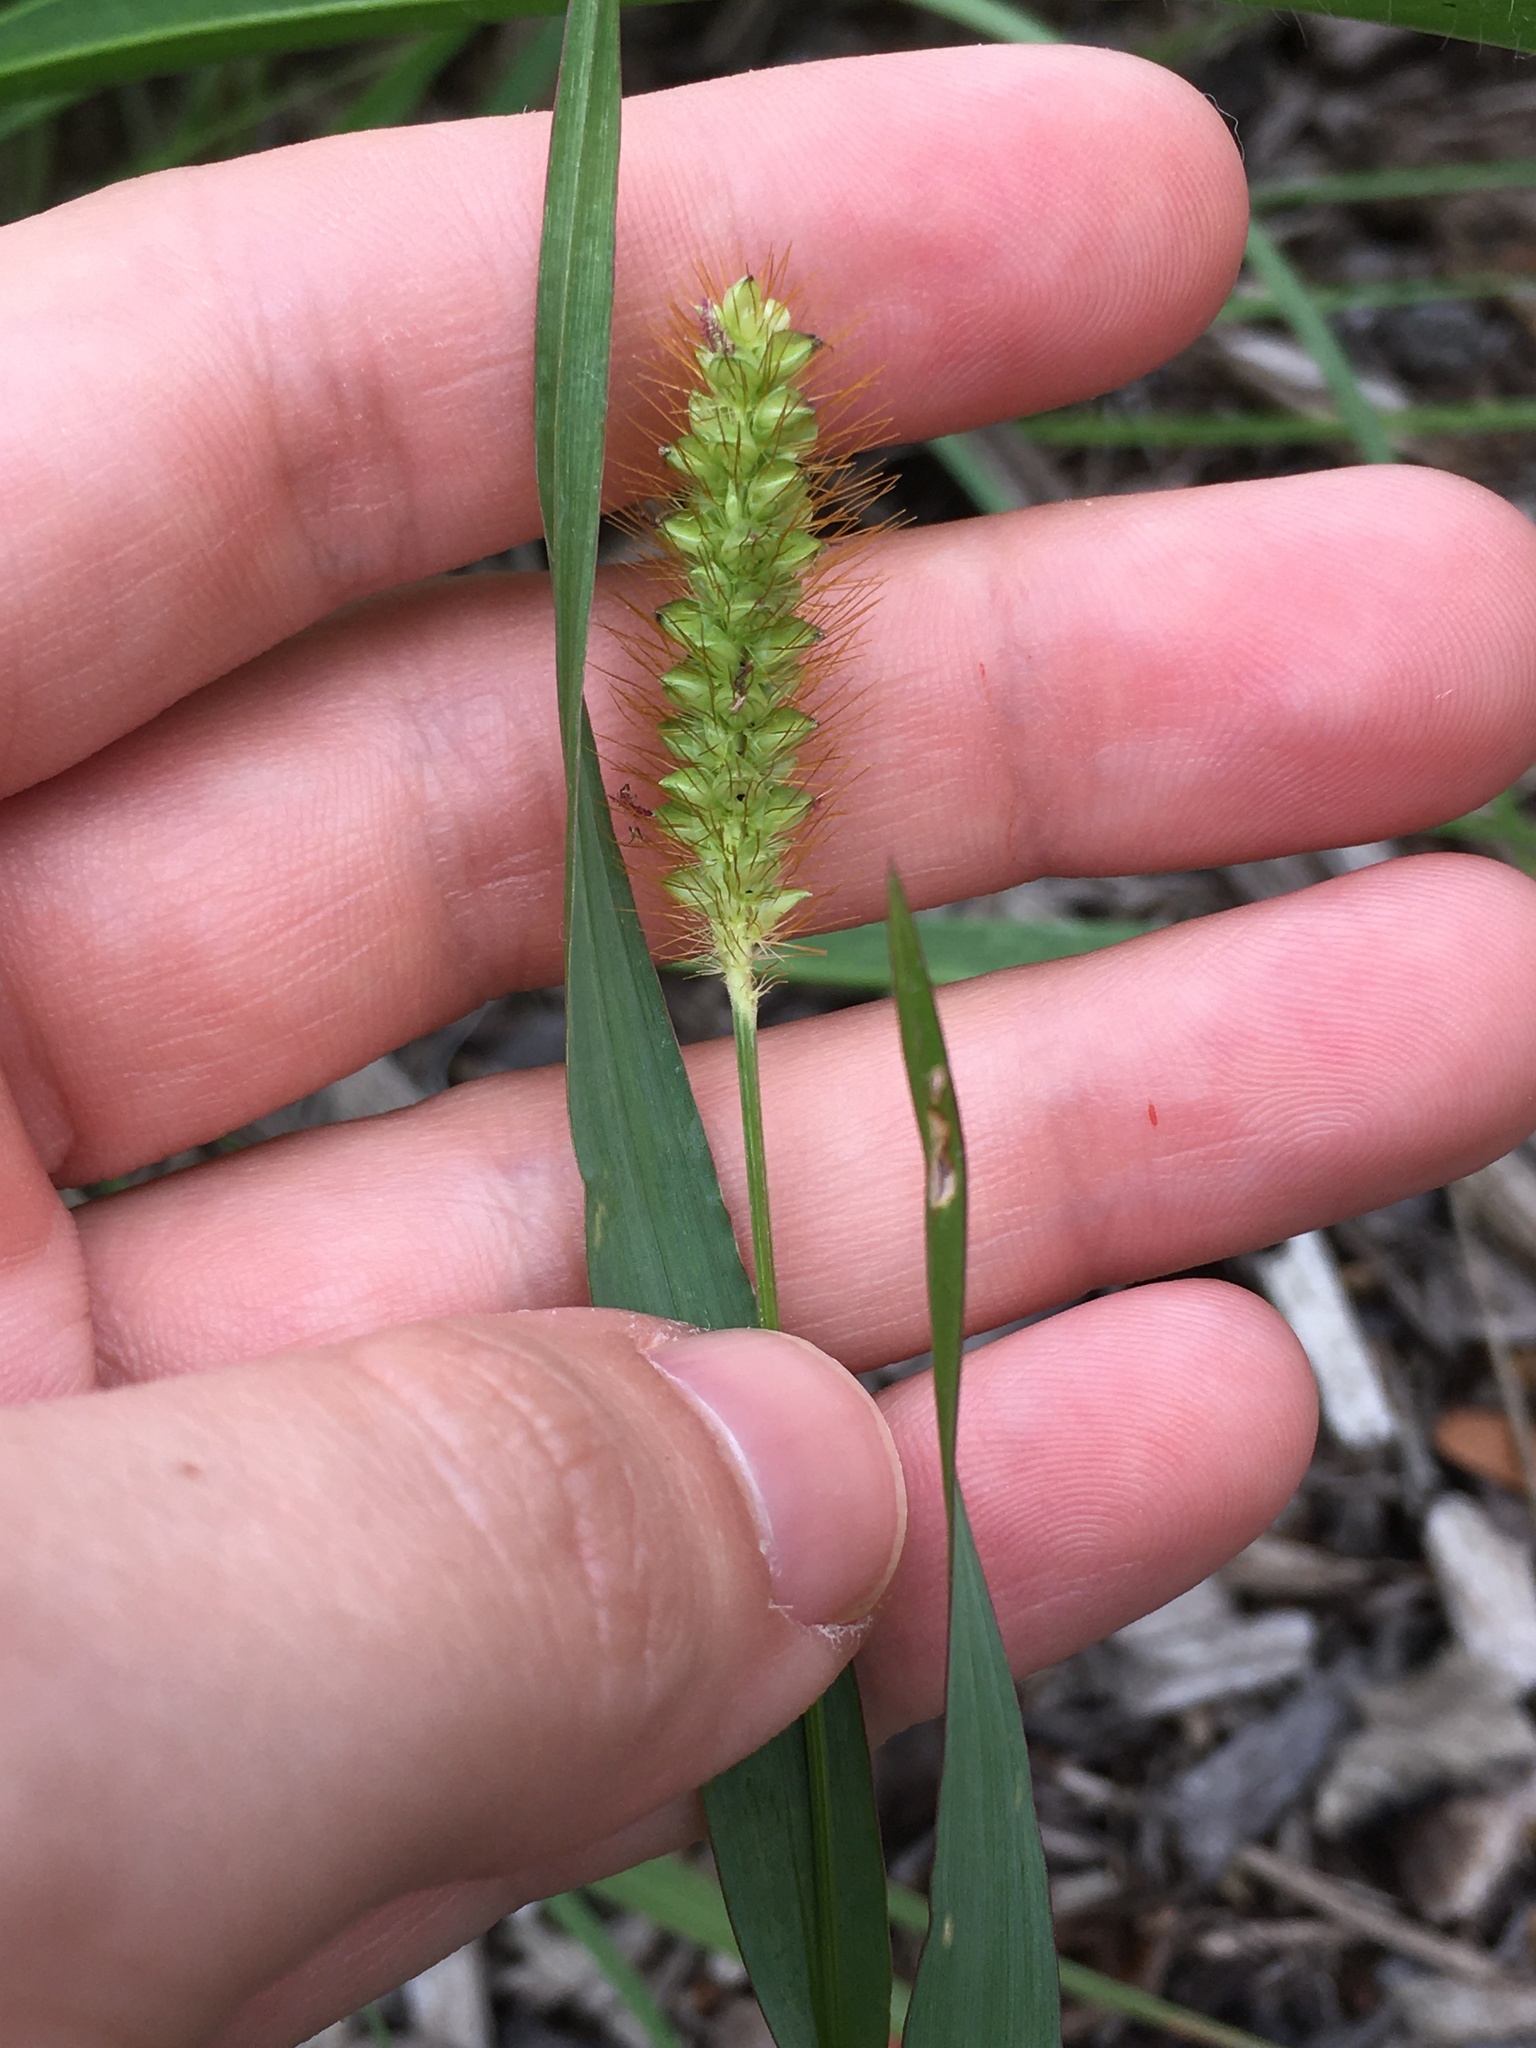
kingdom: Plantae
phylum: Tracheophyta
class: Liliopsida
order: Poales
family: Poaceae
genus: Setaria
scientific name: Setaria pumila
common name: Yellow bristle-grass
